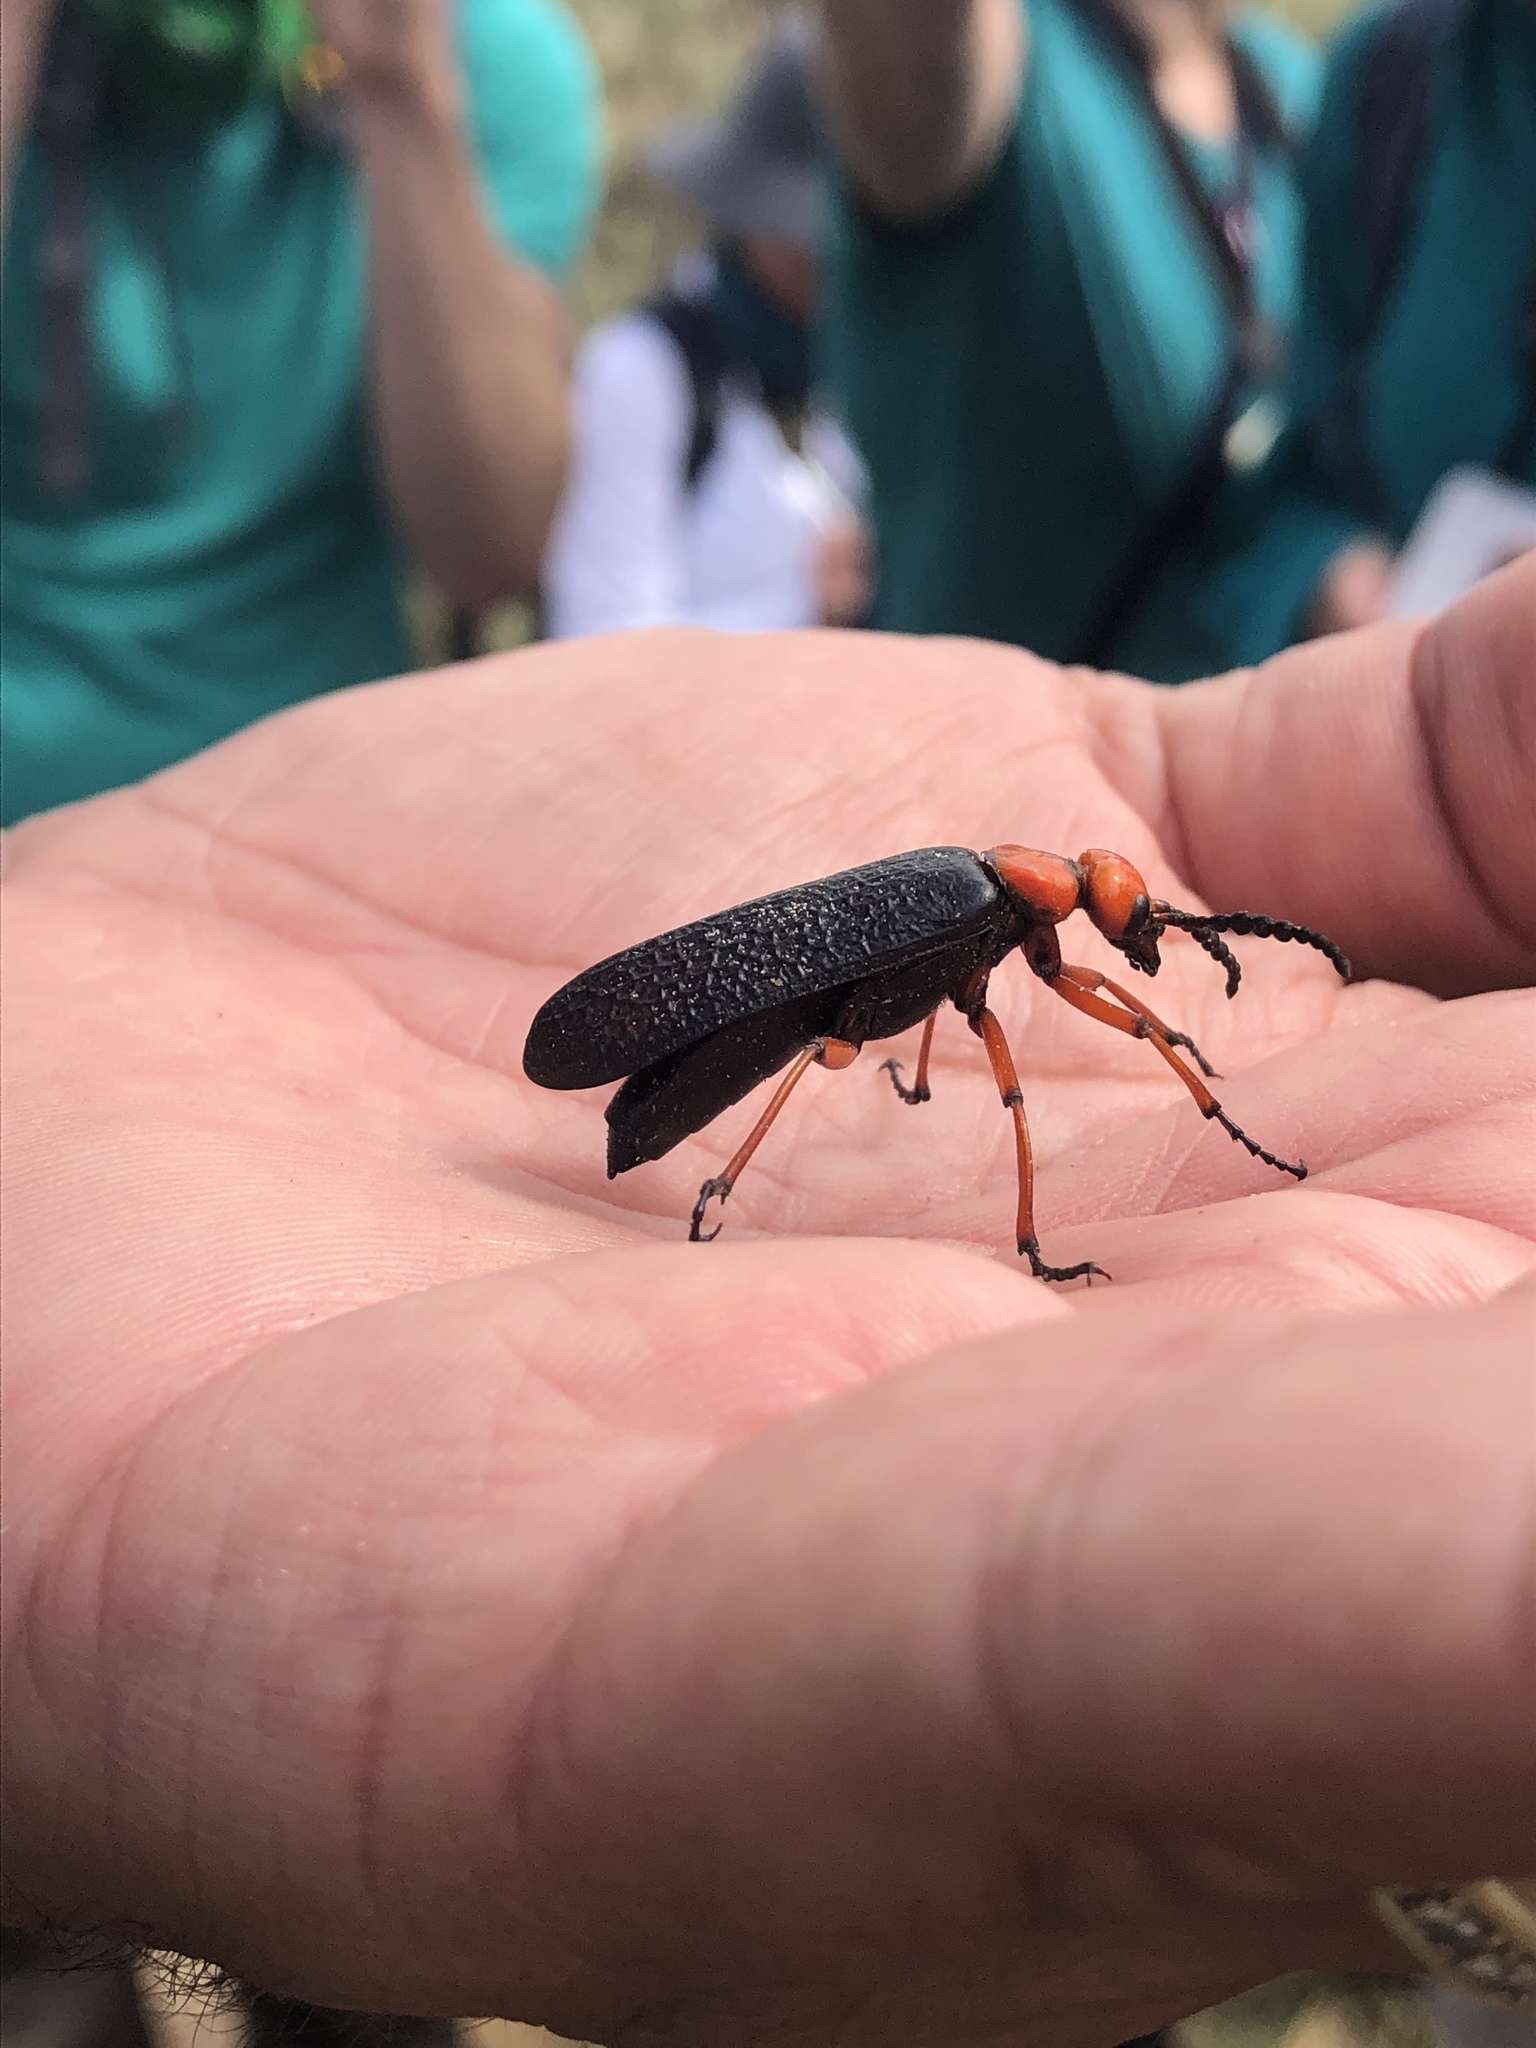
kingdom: Animalia
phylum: Arthropoda
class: Insecta
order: Coleoptera
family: Meloidae
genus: Lytta
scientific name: Lytta magister
